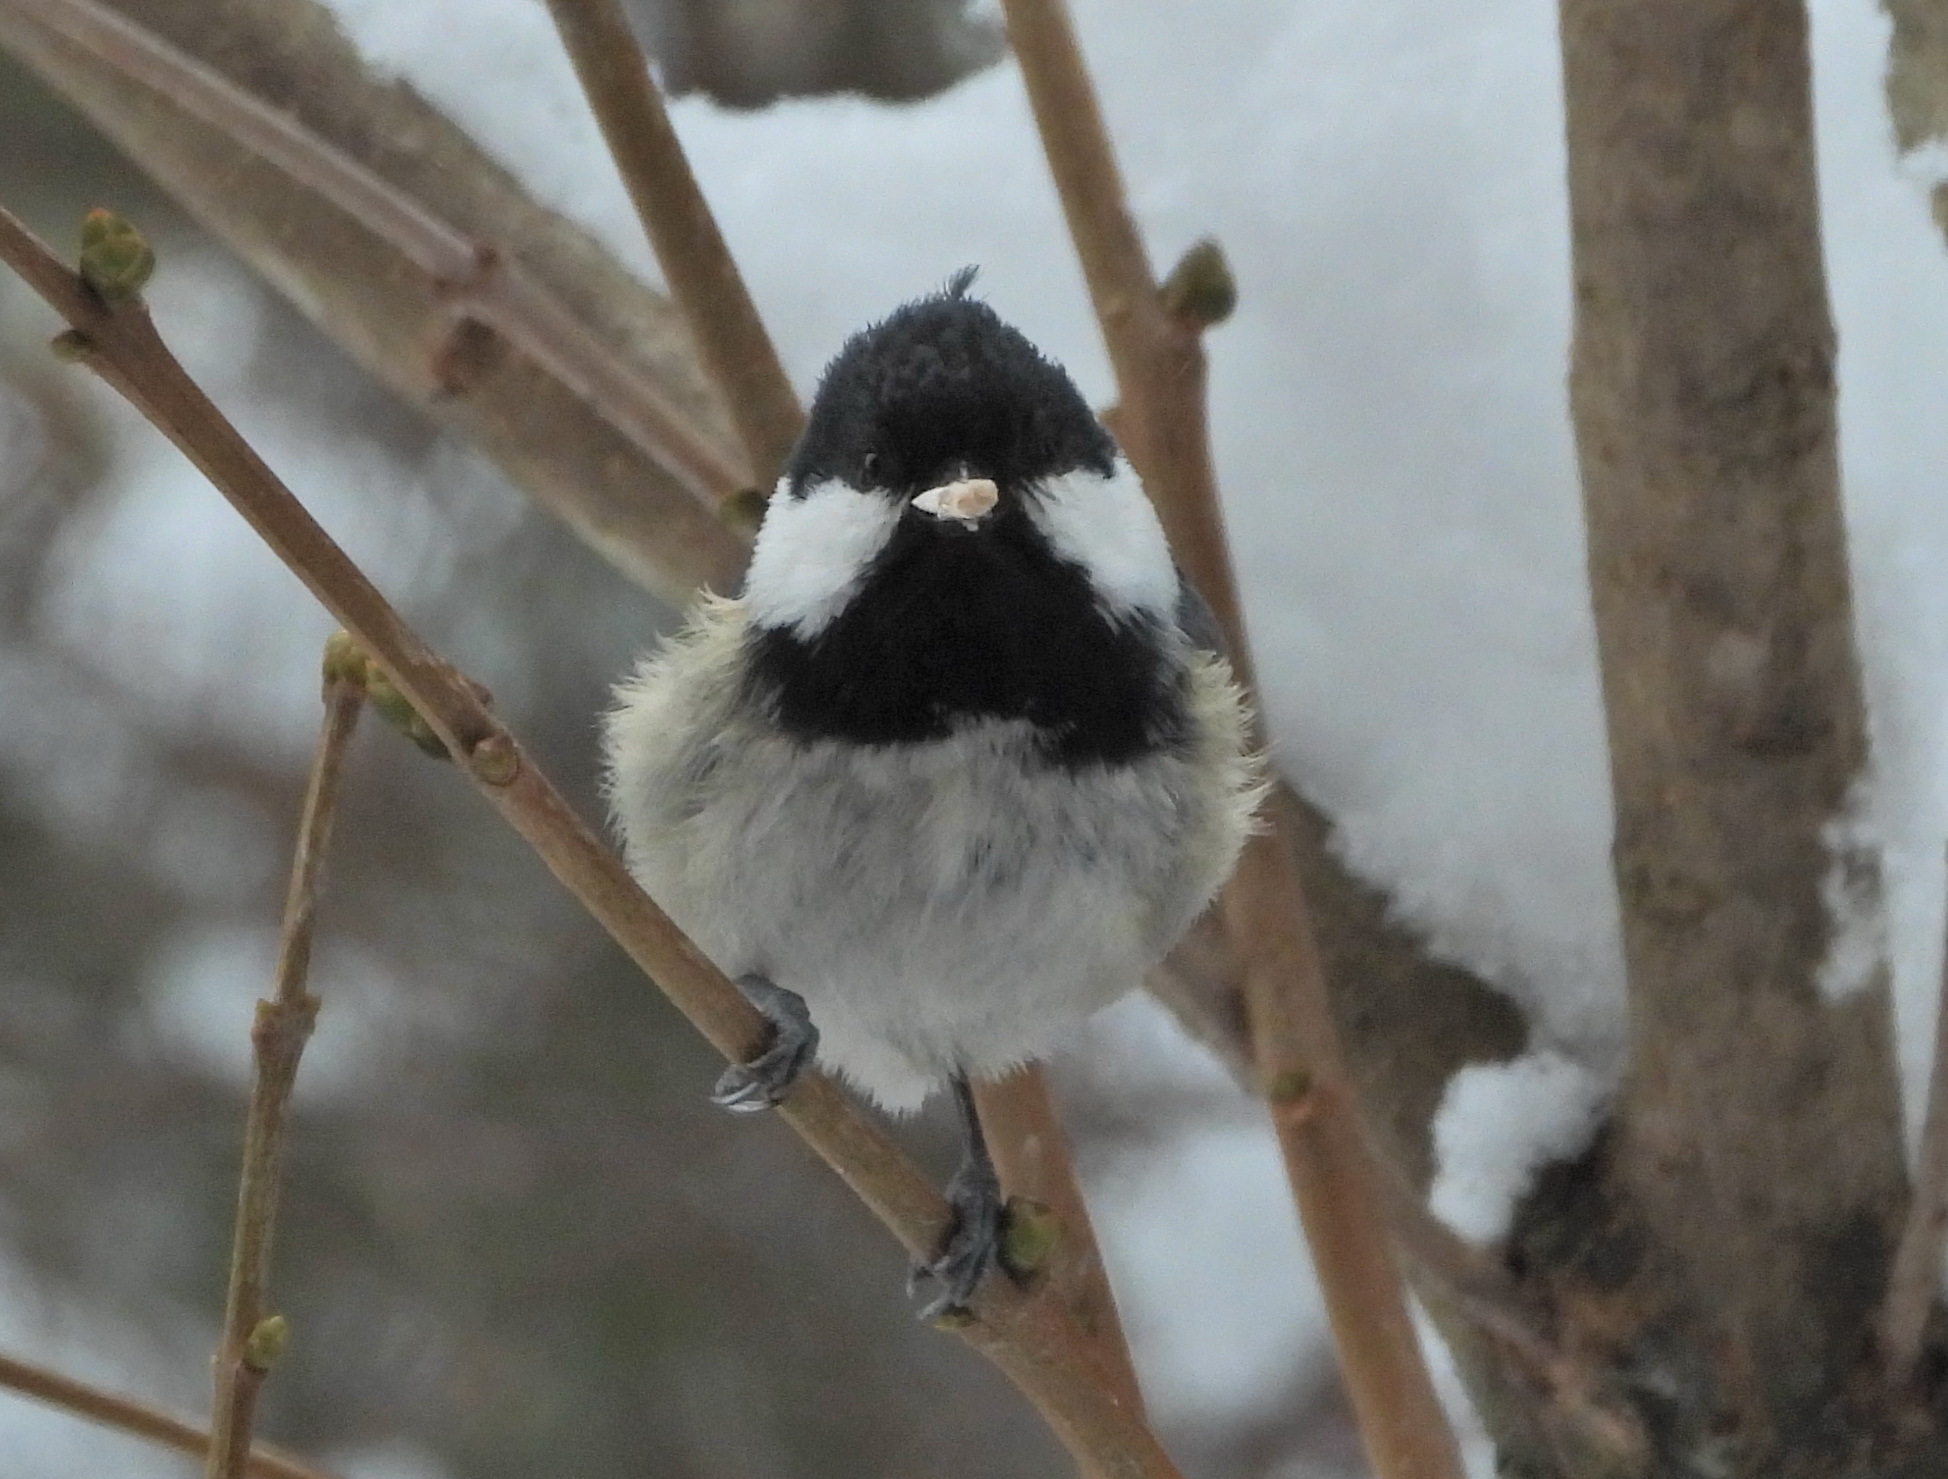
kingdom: Animalia
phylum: Chordata
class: Aves
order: Passeriformes
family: Paridae
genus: Periparus
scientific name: Periparus ater
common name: Coal tit
